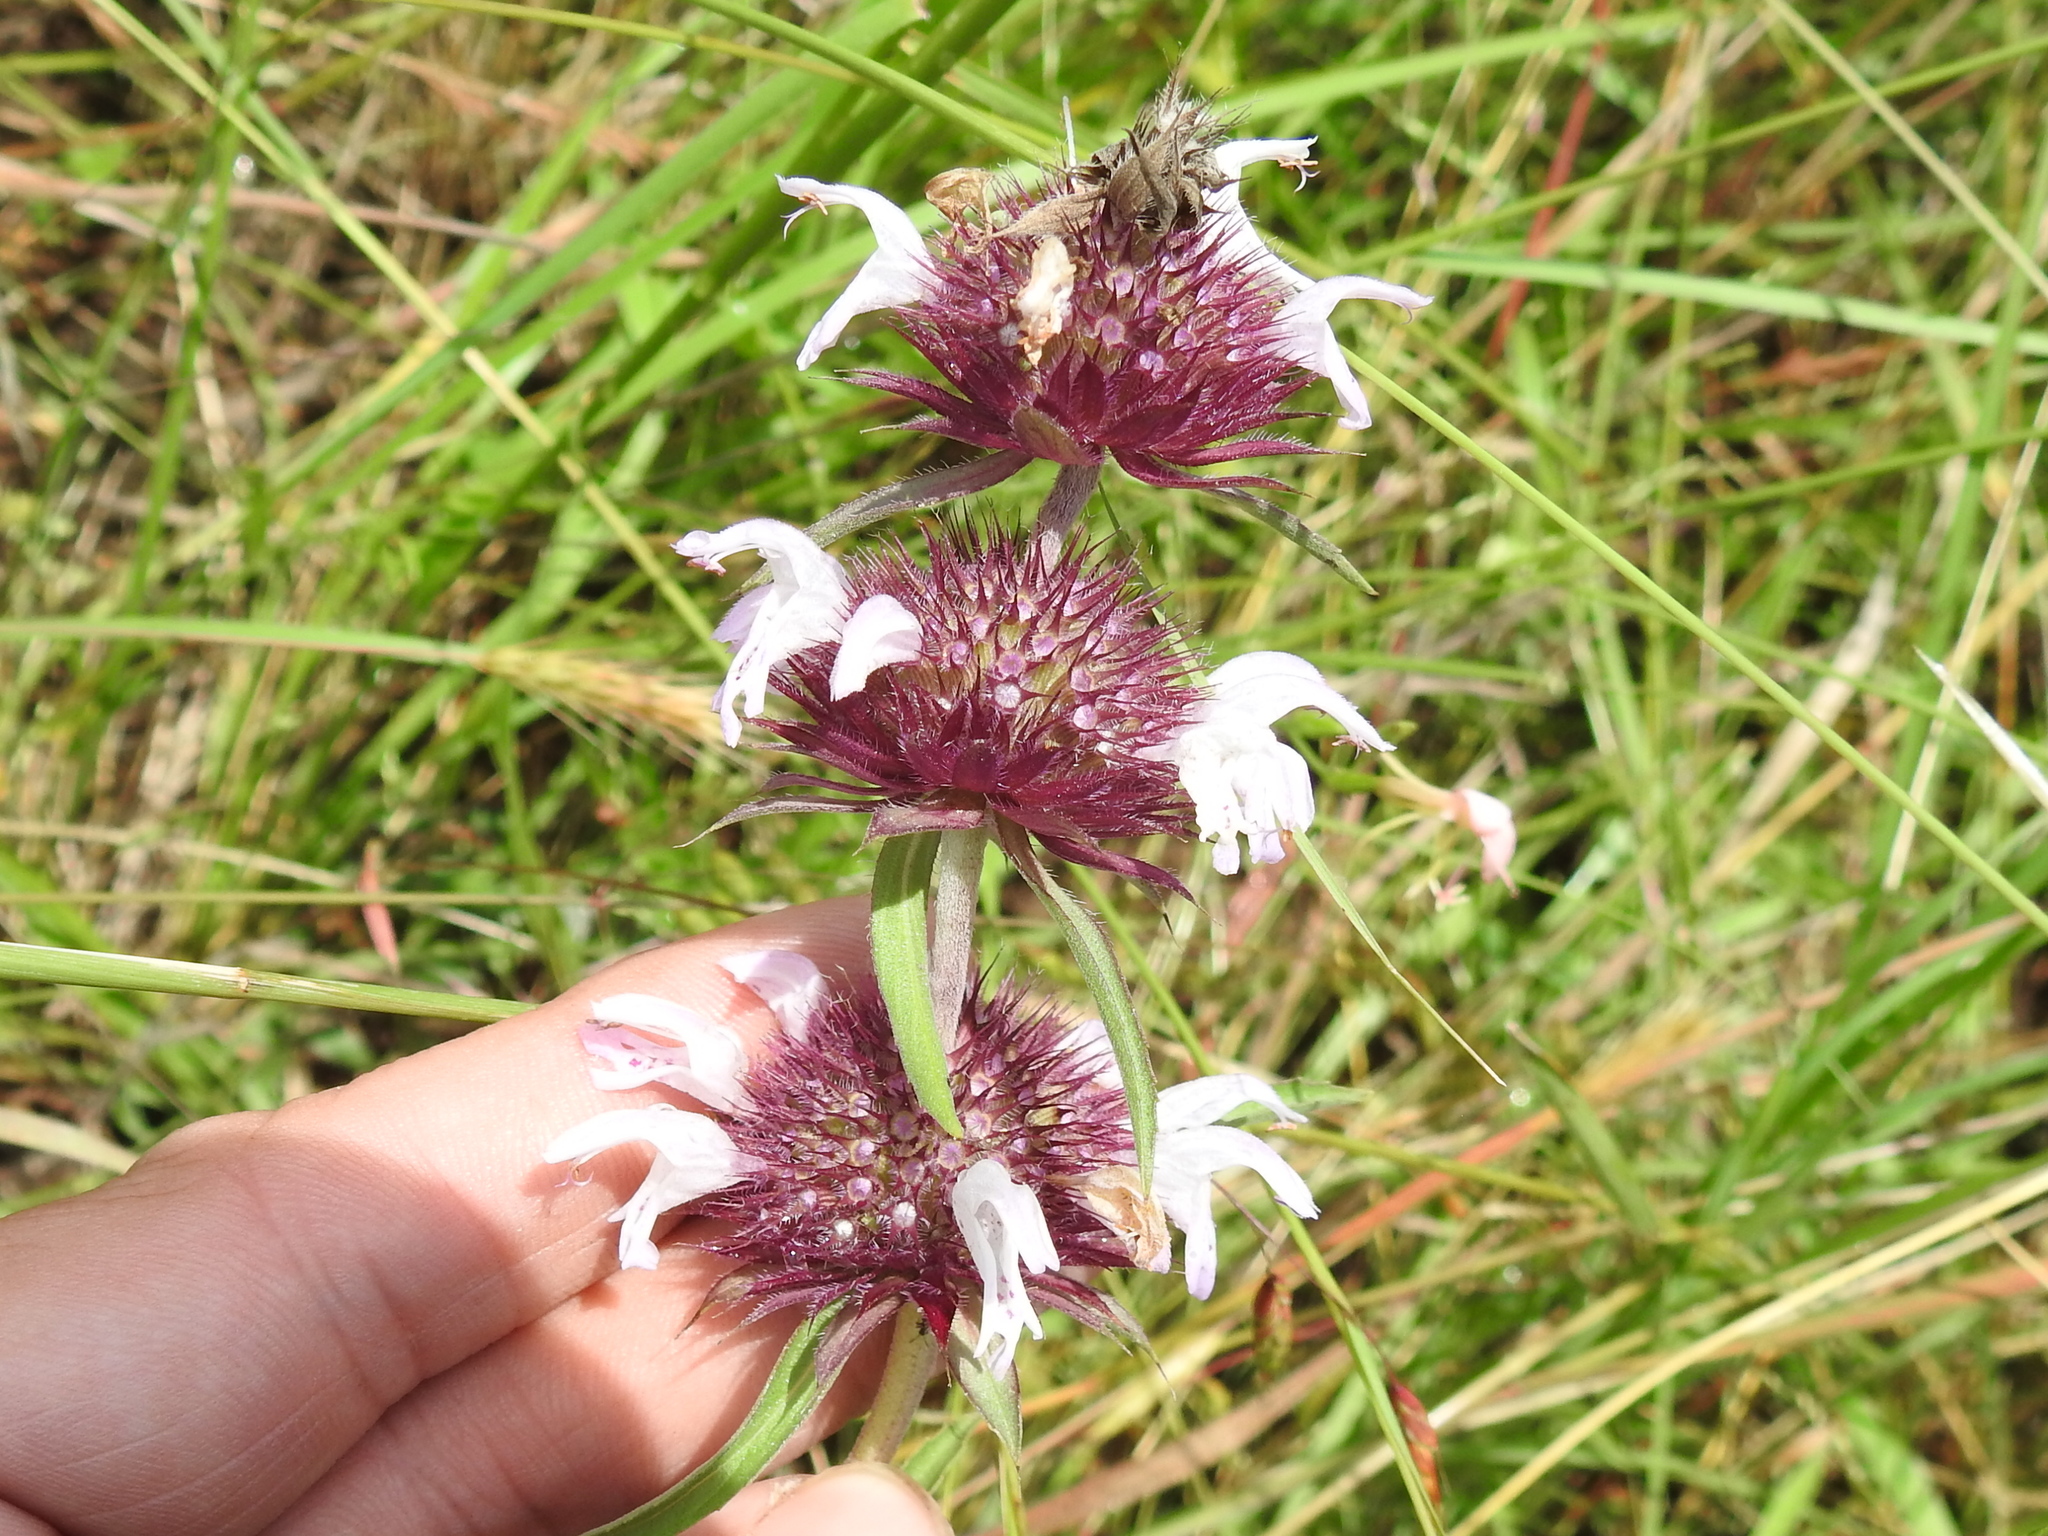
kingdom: Plantae
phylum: Tracheophyta
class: Magnoliopsida
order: Lamiales
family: Lamiaceae
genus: Monarda
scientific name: Monarda clinopodioides
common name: Basil beebalm
